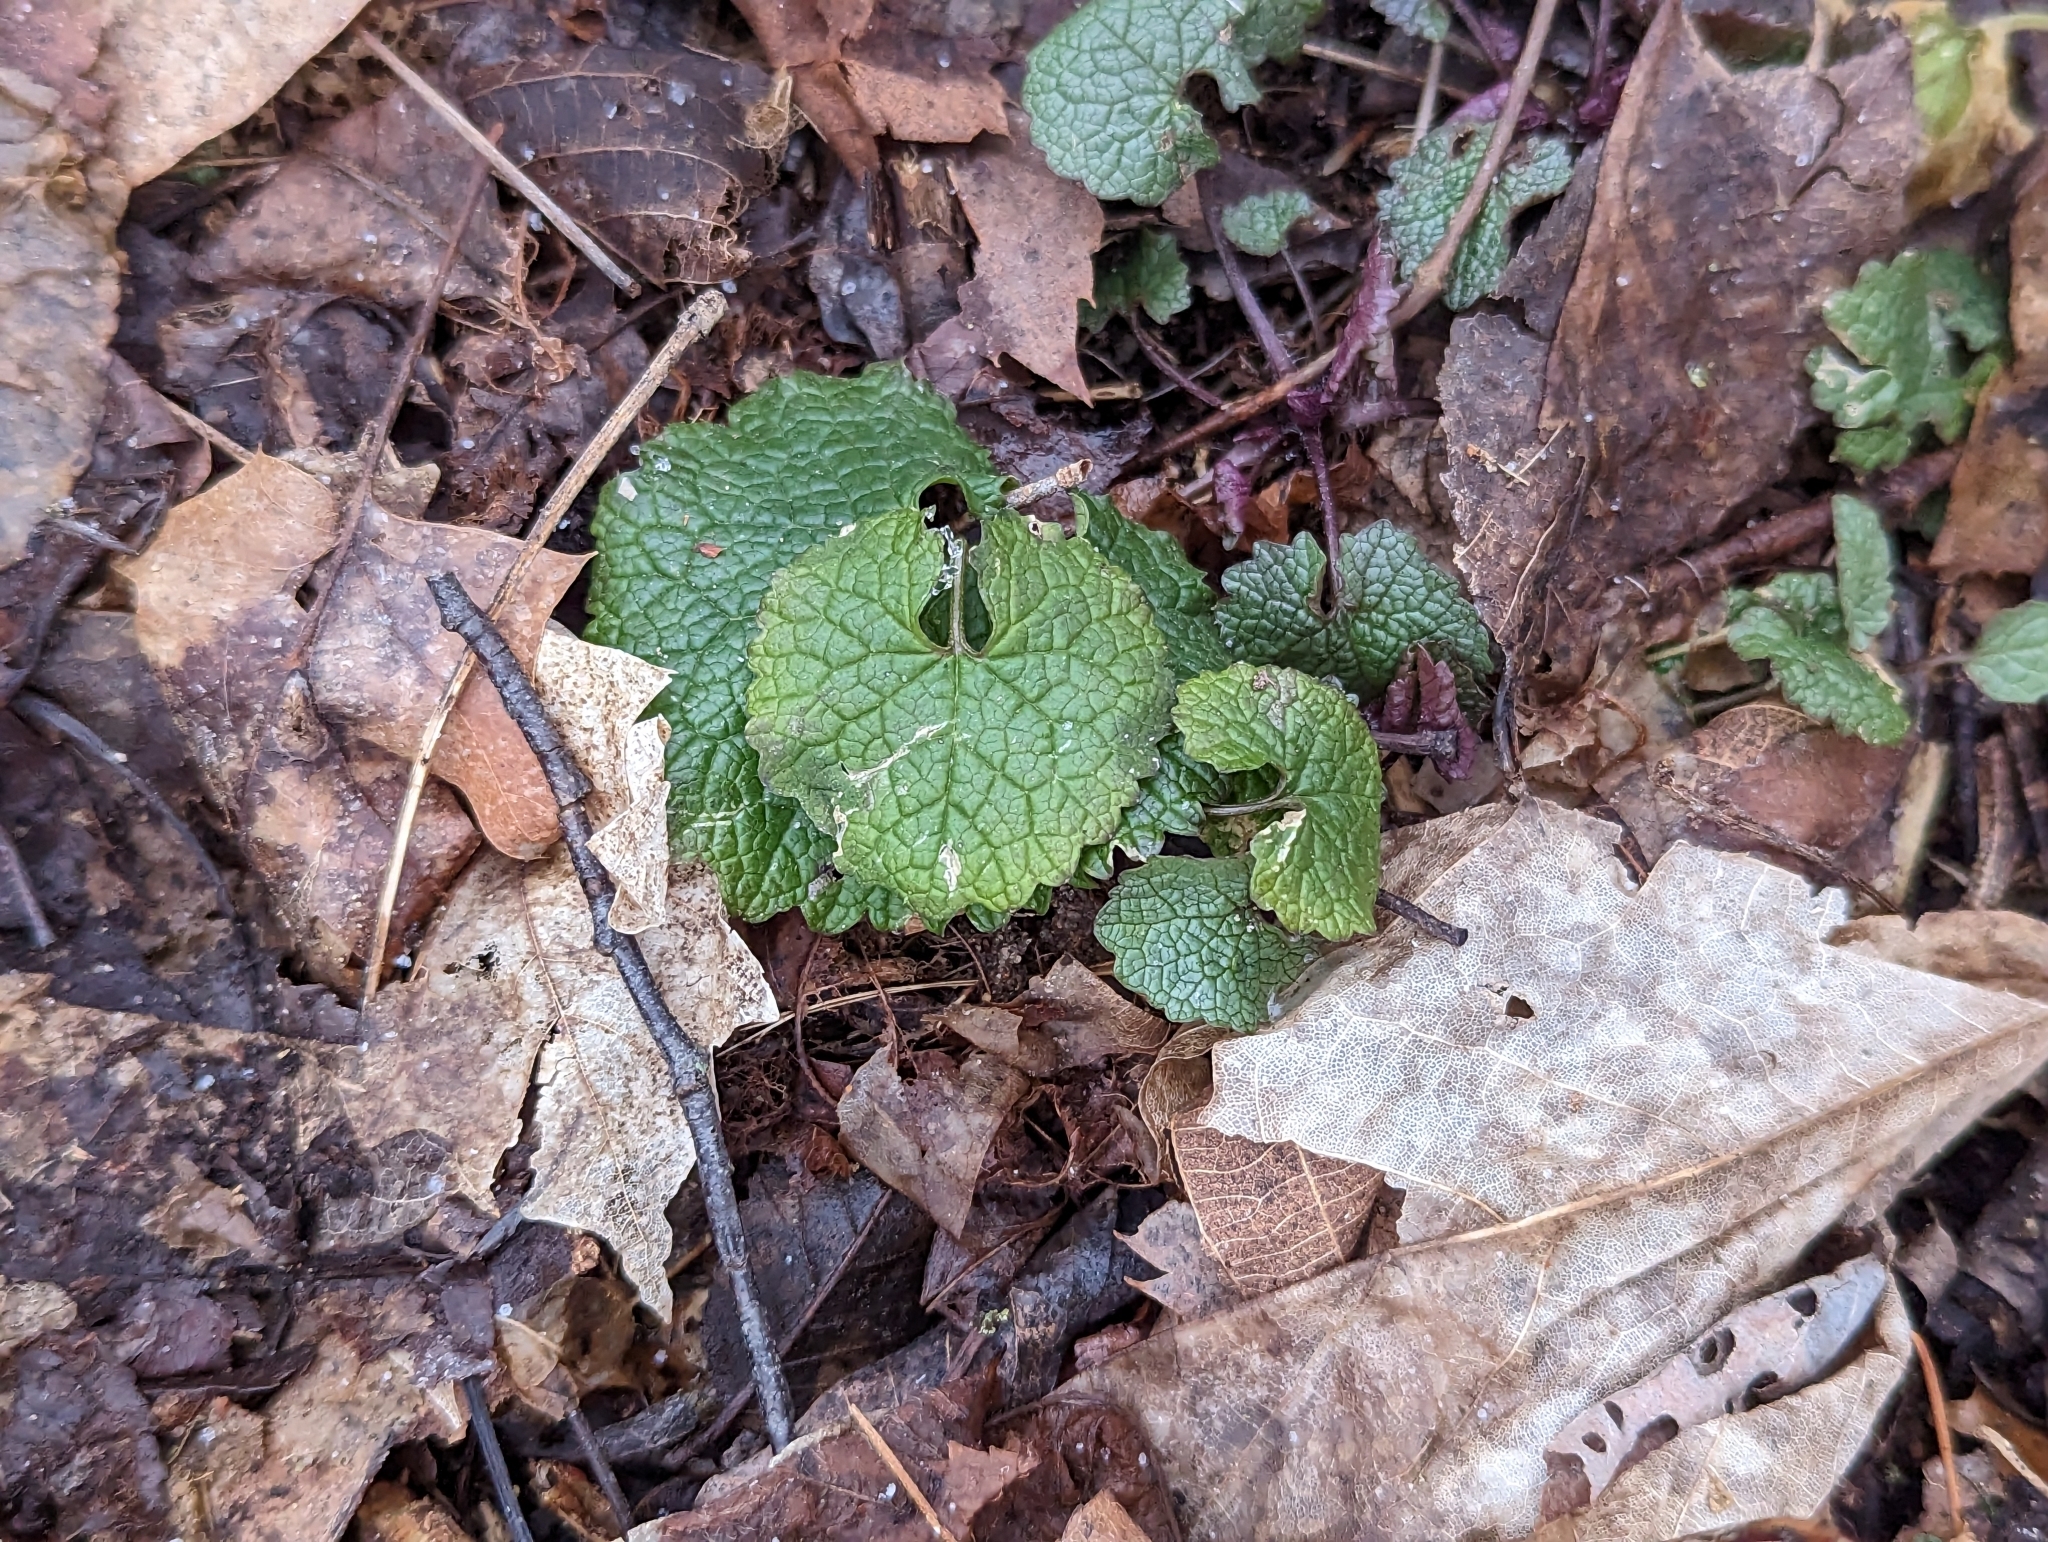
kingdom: Plantae
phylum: Tracheophyta
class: Magnoliopsida
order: Brassicales
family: Brassicaceae
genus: Alliaria
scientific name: Alliaria petiolata
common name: Garlic mustard
